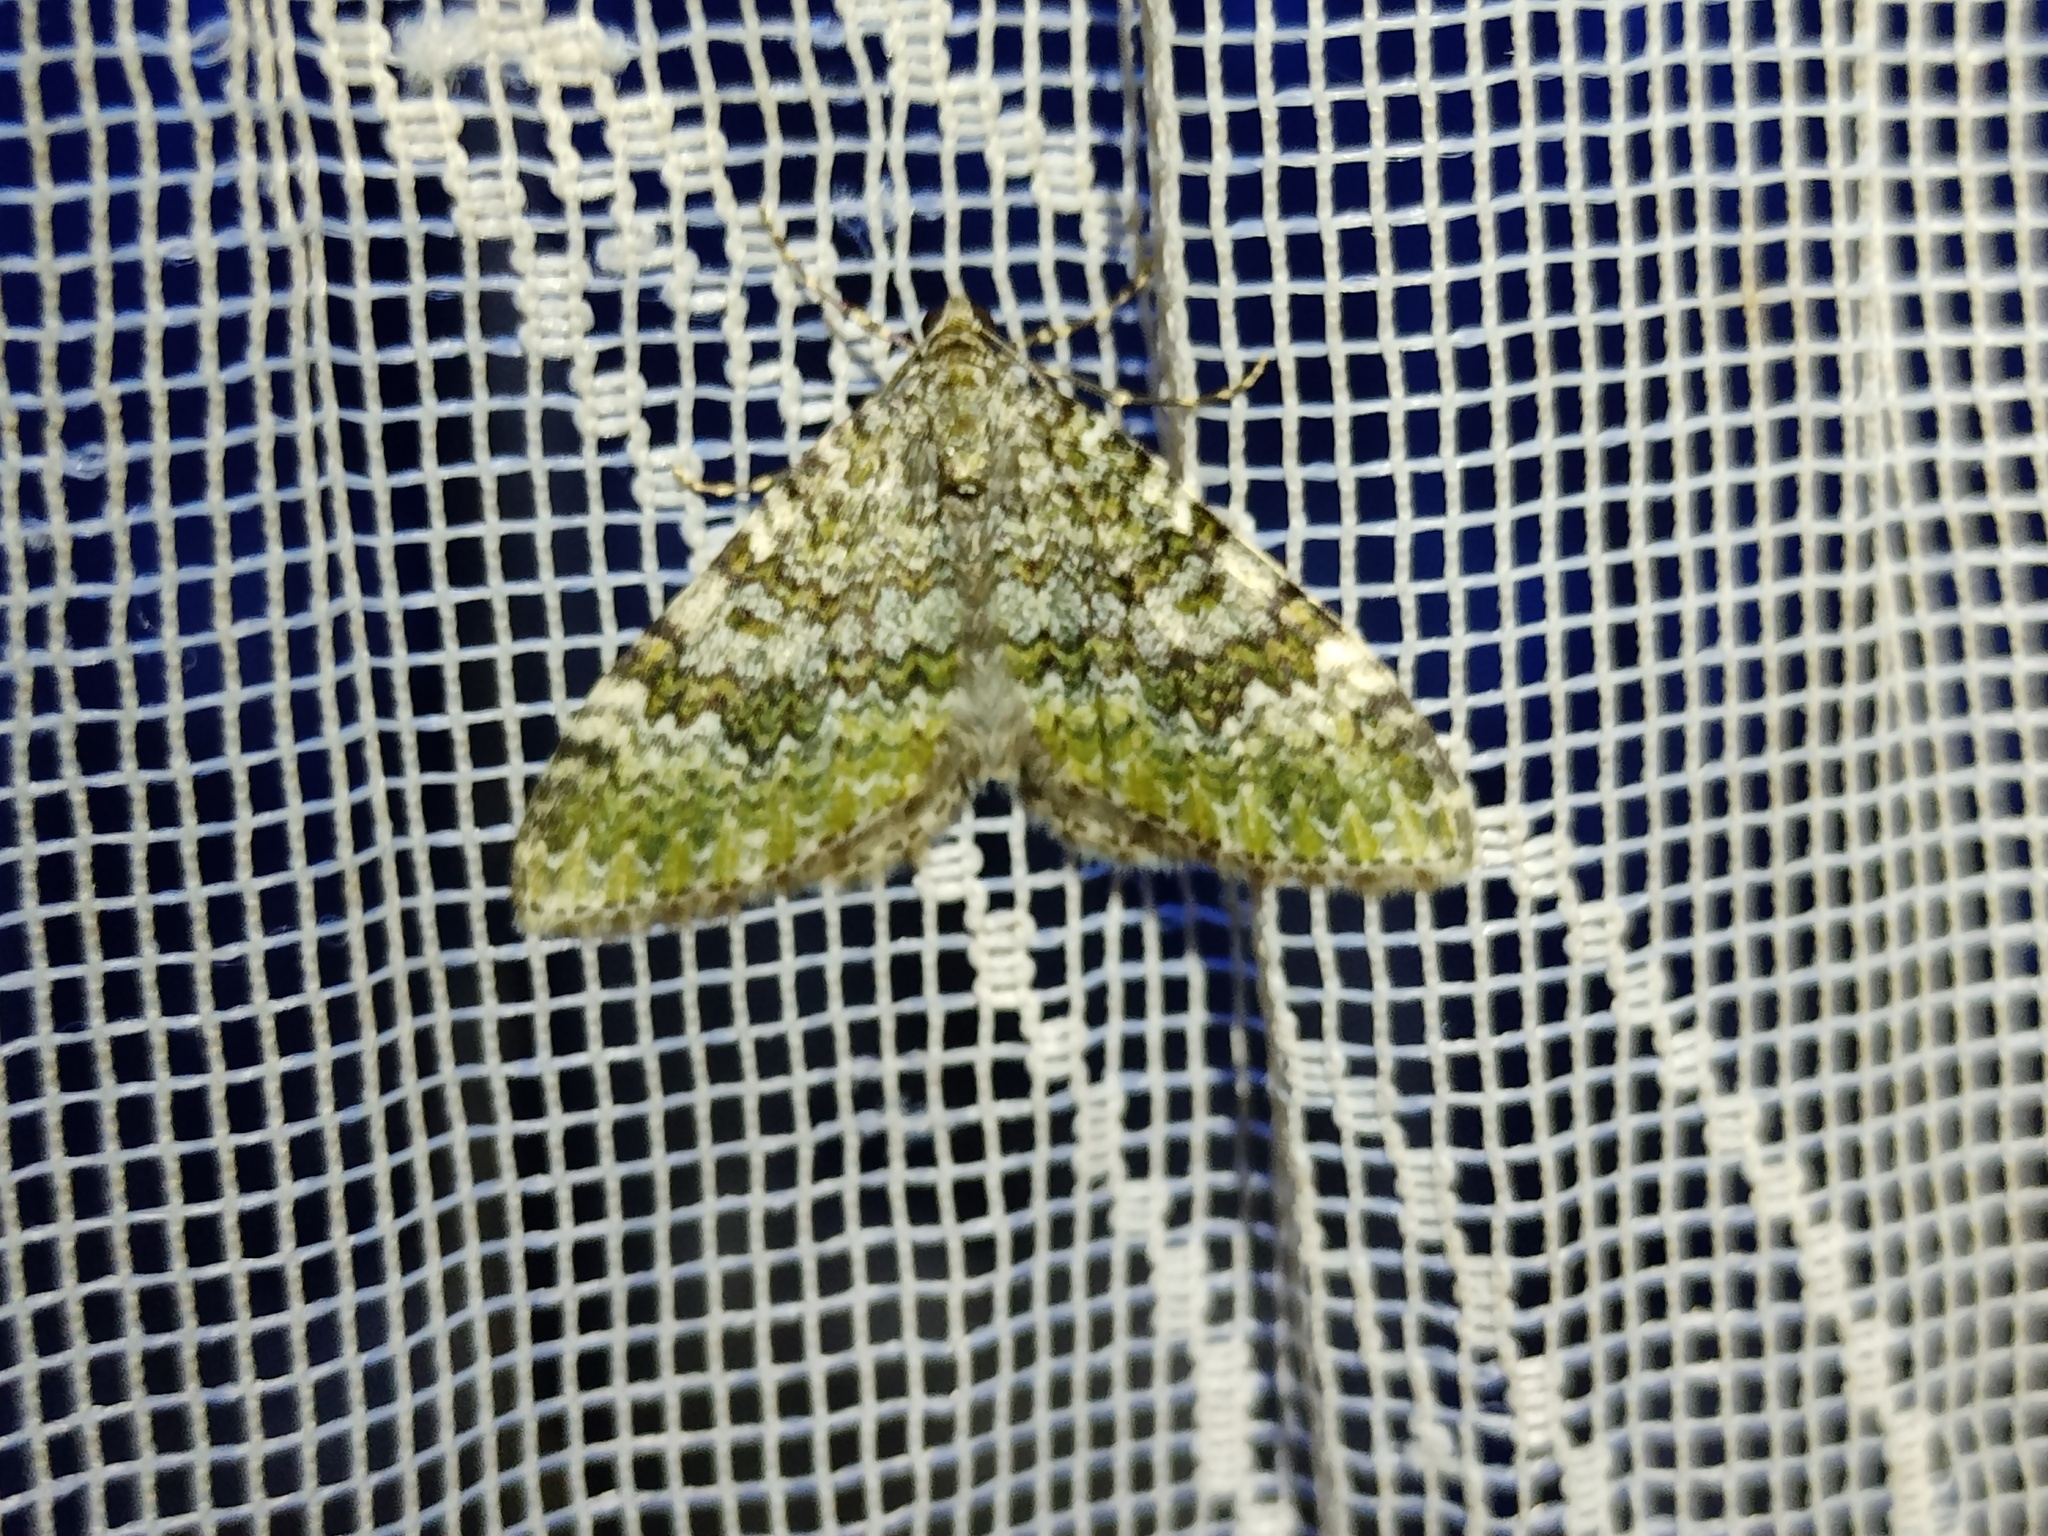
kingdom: Animalia
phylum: Arthropoda
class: Insecta
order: Lepidoptera
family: Geometridae
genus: Euphyia
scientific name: Euphyia frustata
